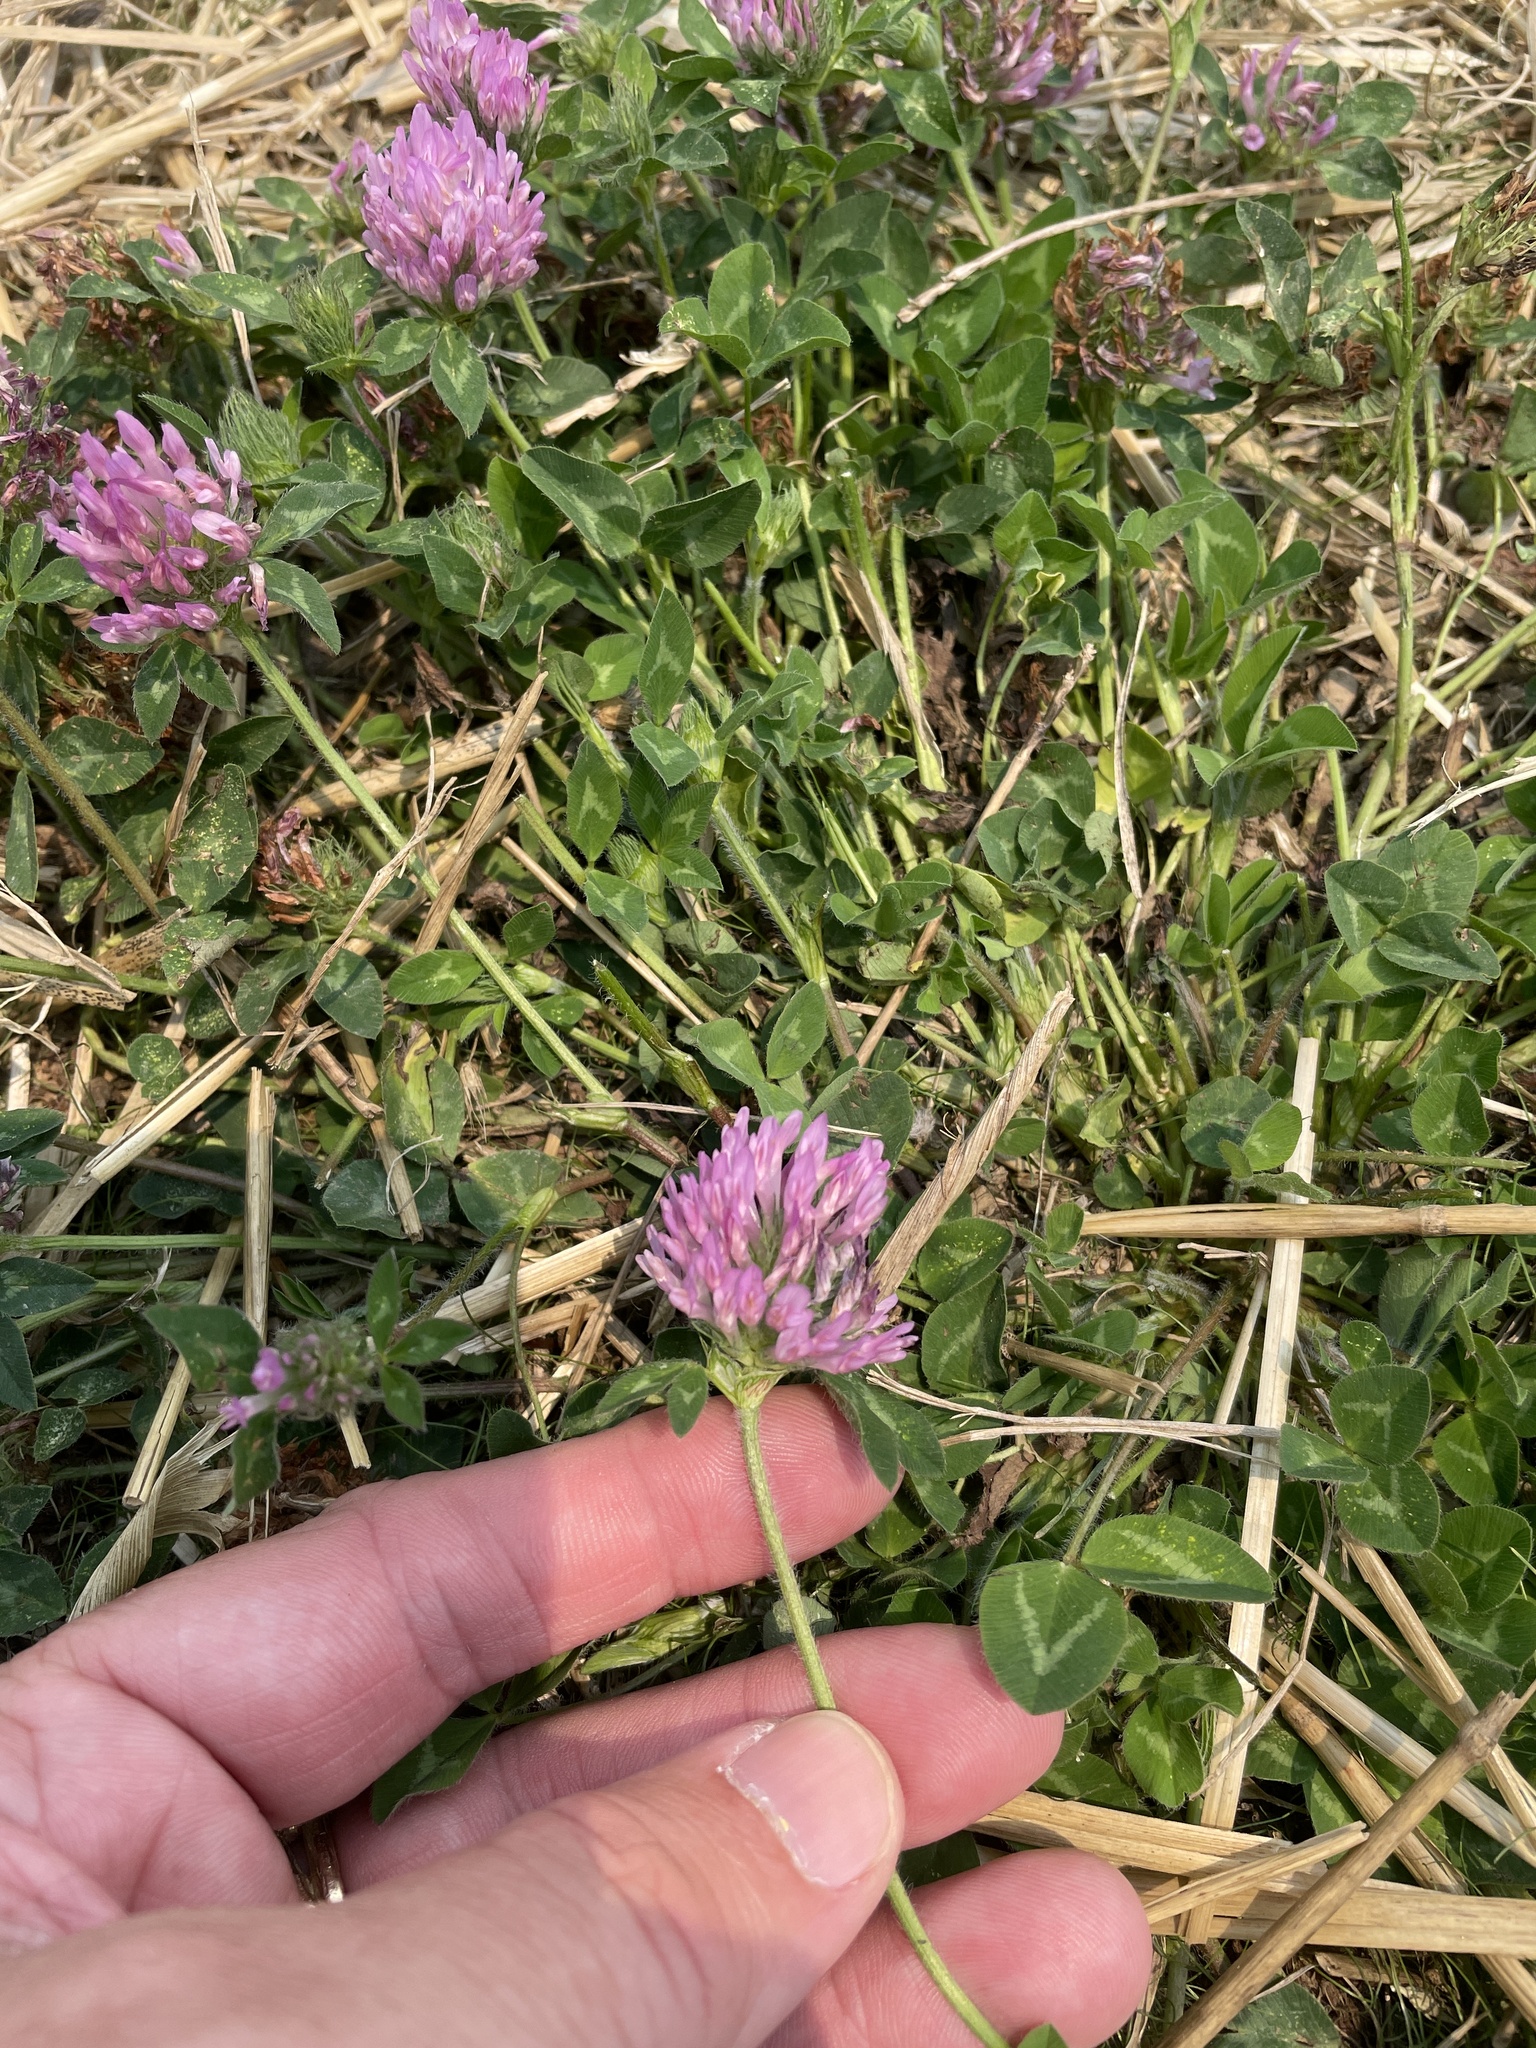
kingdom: Plantae
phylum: Tracheophyta
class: Magnoliopsida
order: Fabales
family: Fabaceae
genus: Trifolium
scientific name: Trifolium pratense
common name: Red clover
